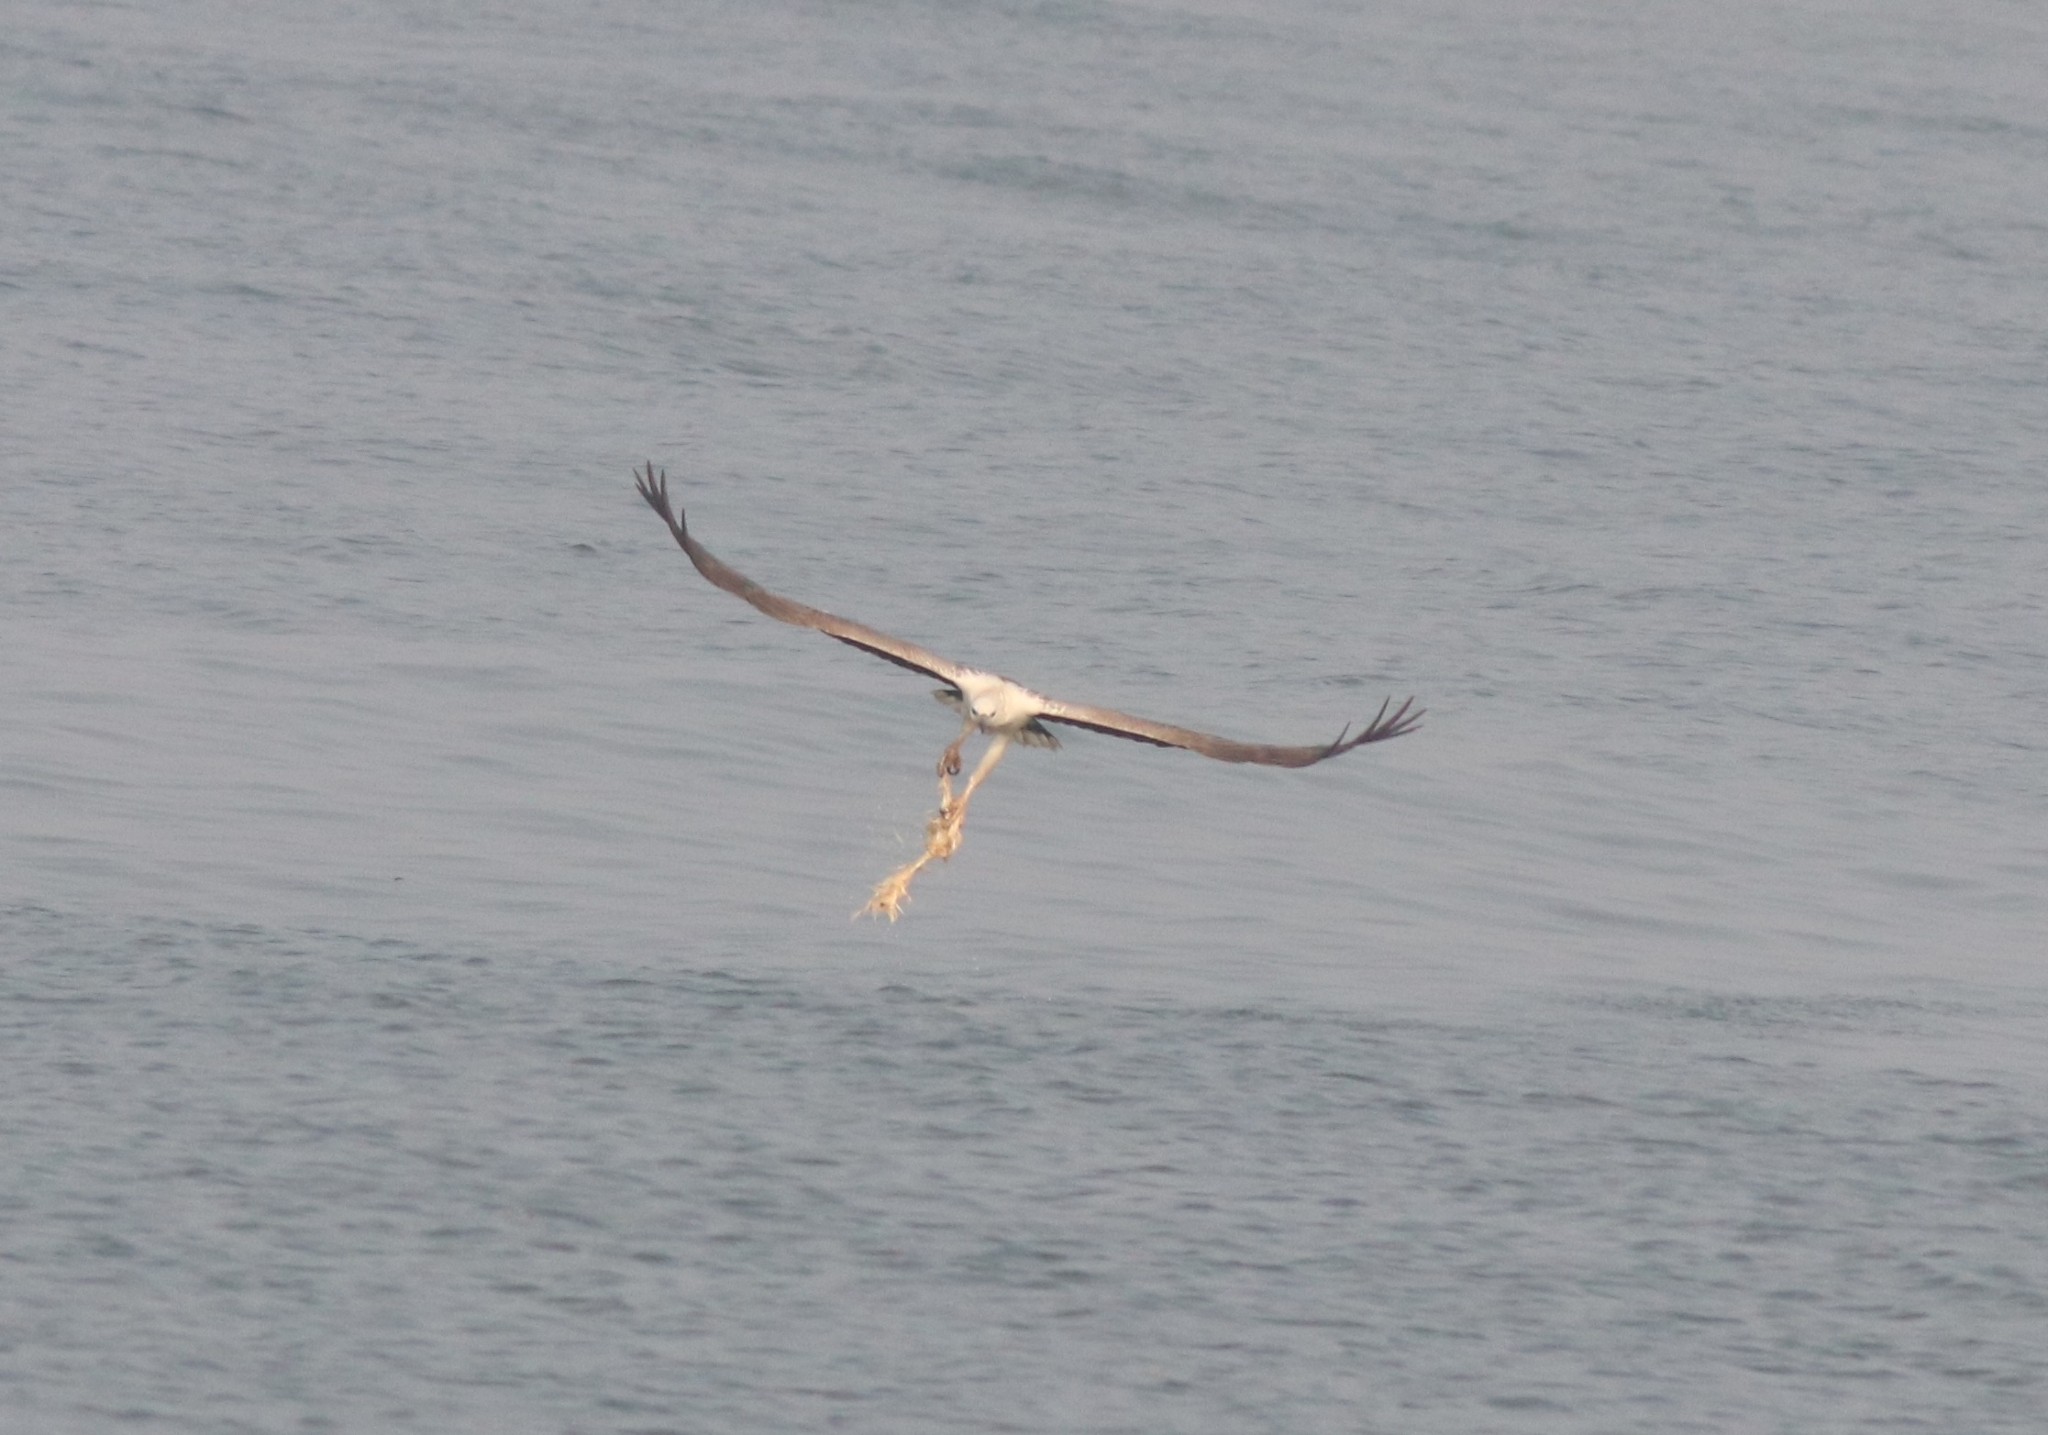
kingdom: Animalia
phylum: Chordata
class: Aves
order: Accipitriformes
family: Accipitridae
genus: Haliaeetus
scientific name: Haliaeetus leucogaster
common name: White-bellied sea eagle
